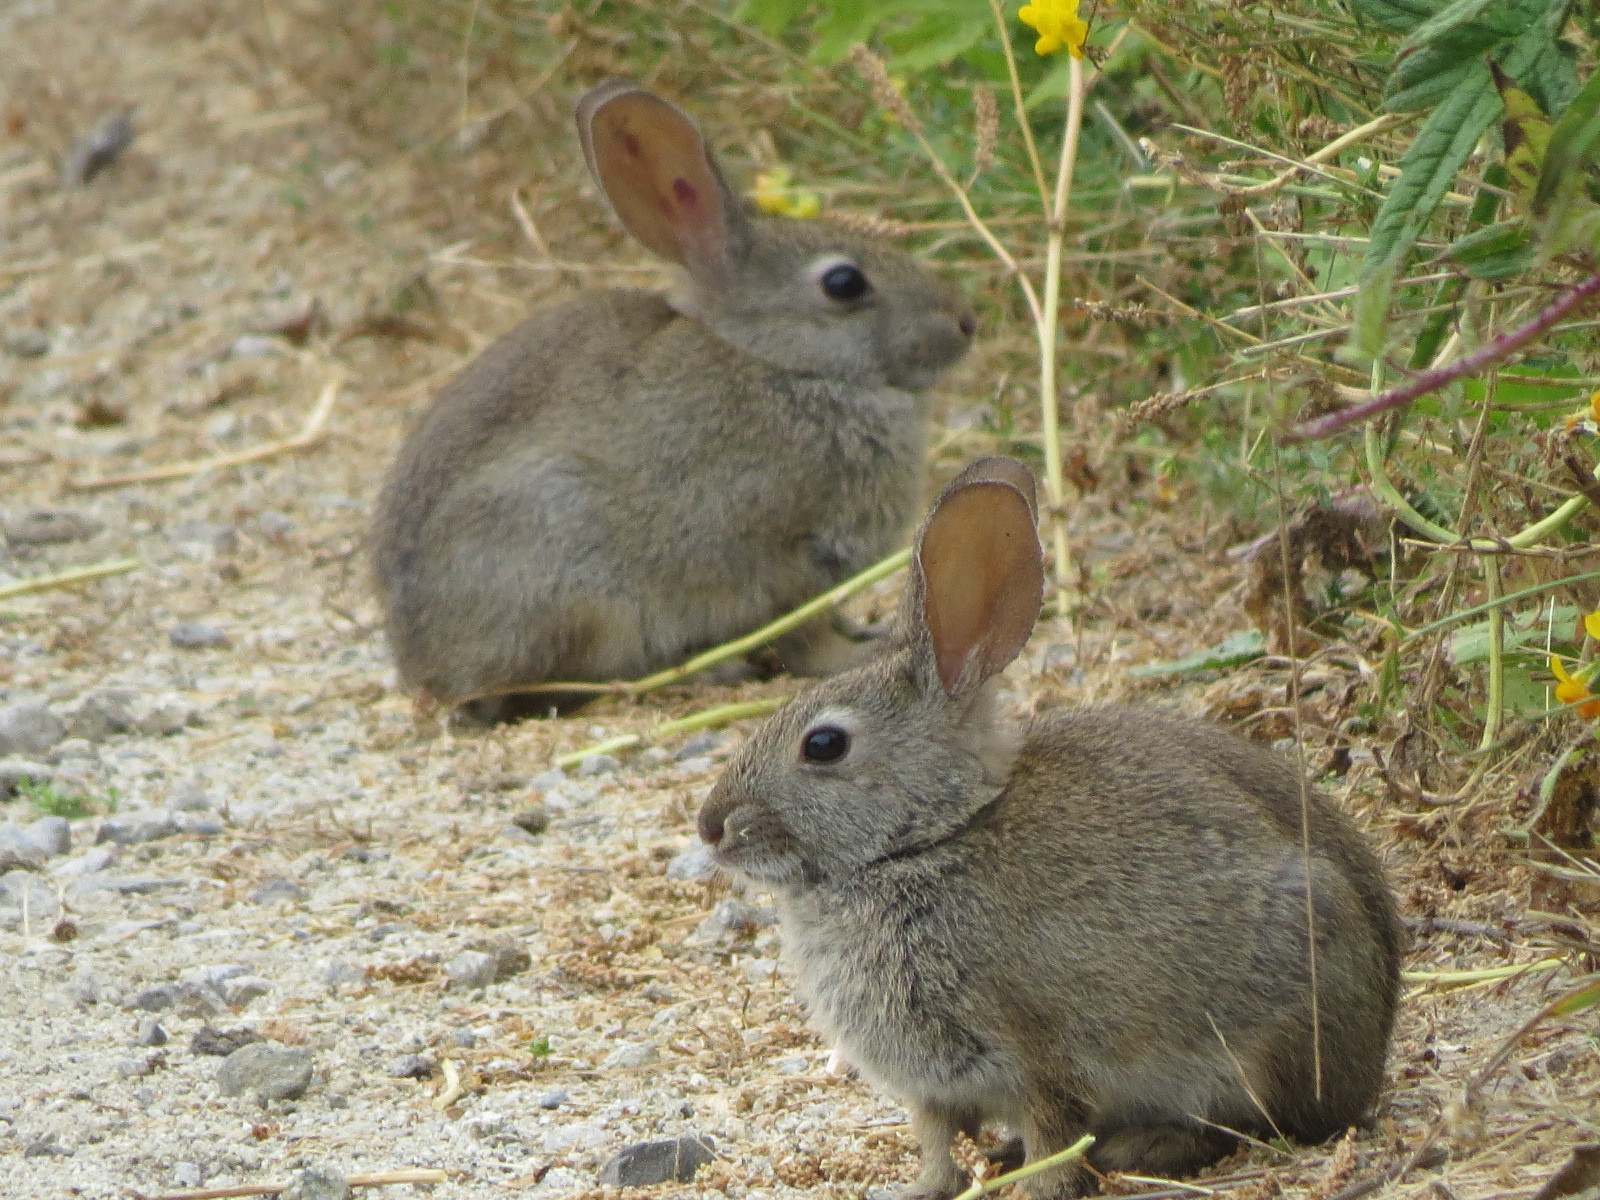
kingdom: Animalia
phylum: Chordata
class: Mammalia
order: Lagomorpha
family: Leporidae
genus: Sylvilagus
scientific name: Sylvilagus bachmani
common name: Brush rabbit
